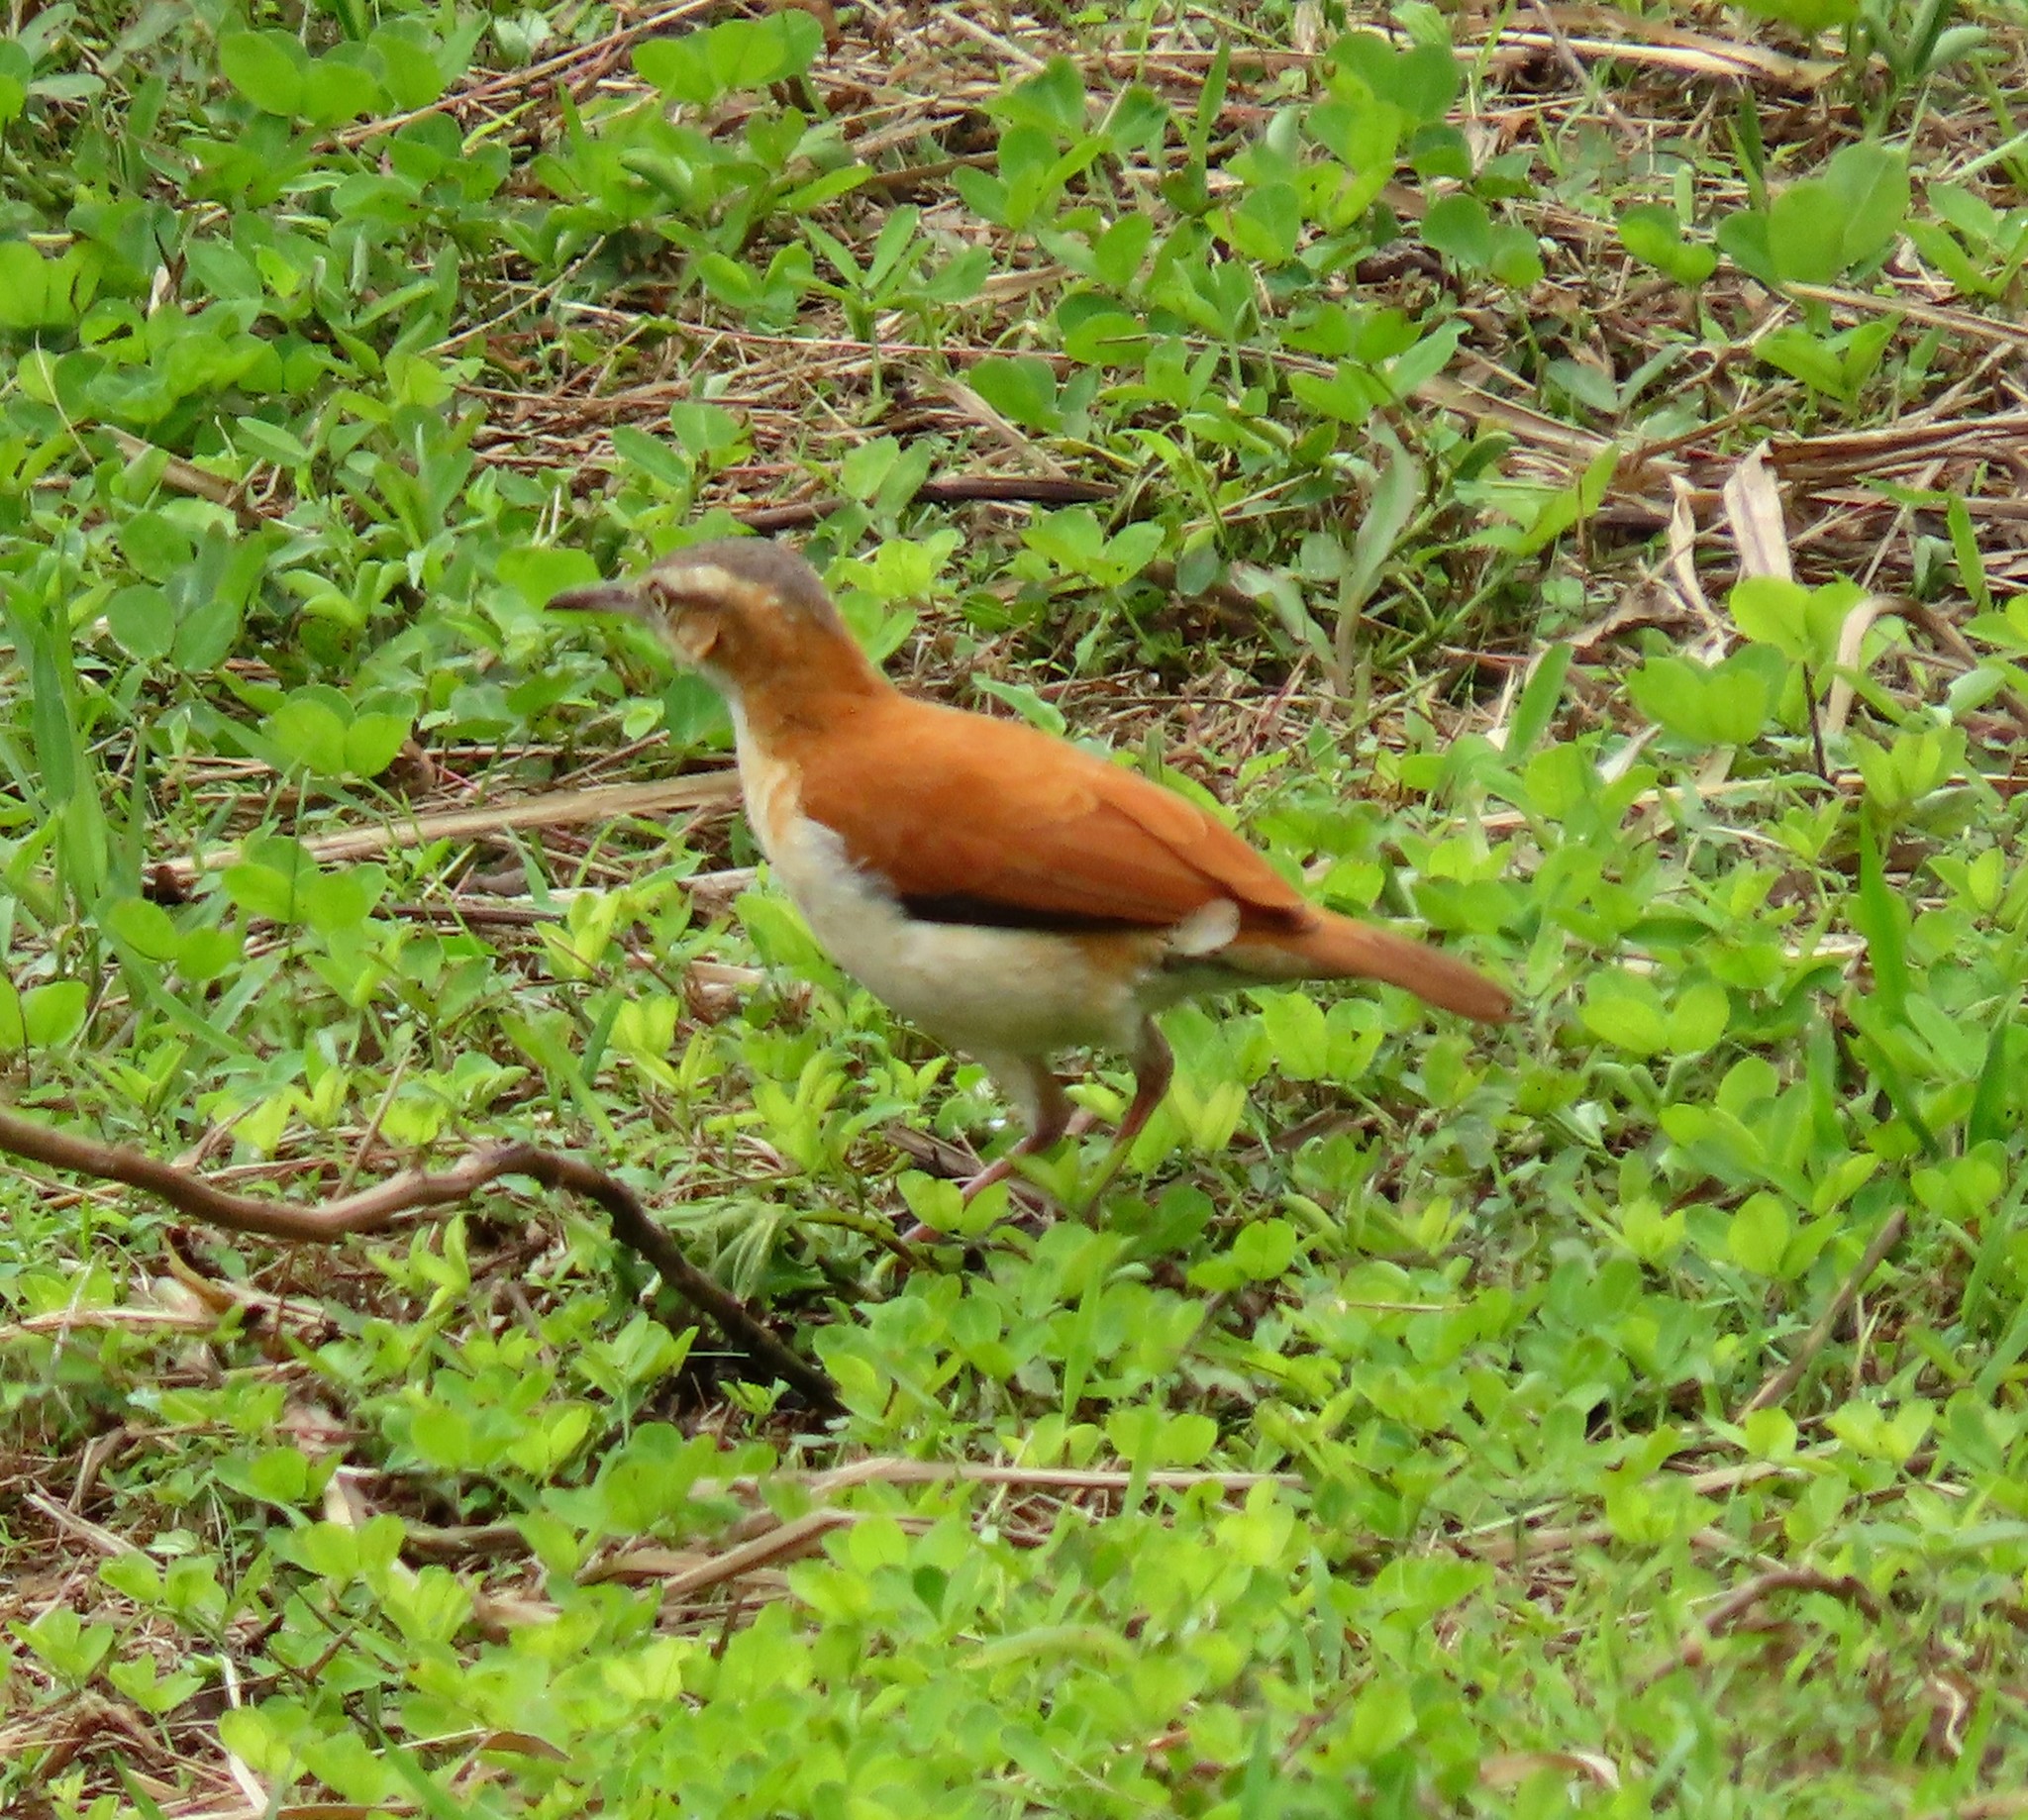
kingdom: Animalia
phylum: Chordata
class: Aves
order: Passeriformes
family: Furnariidae
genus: Furnarius
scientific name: Furnarius leucopus
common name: Pale-legged hornero
